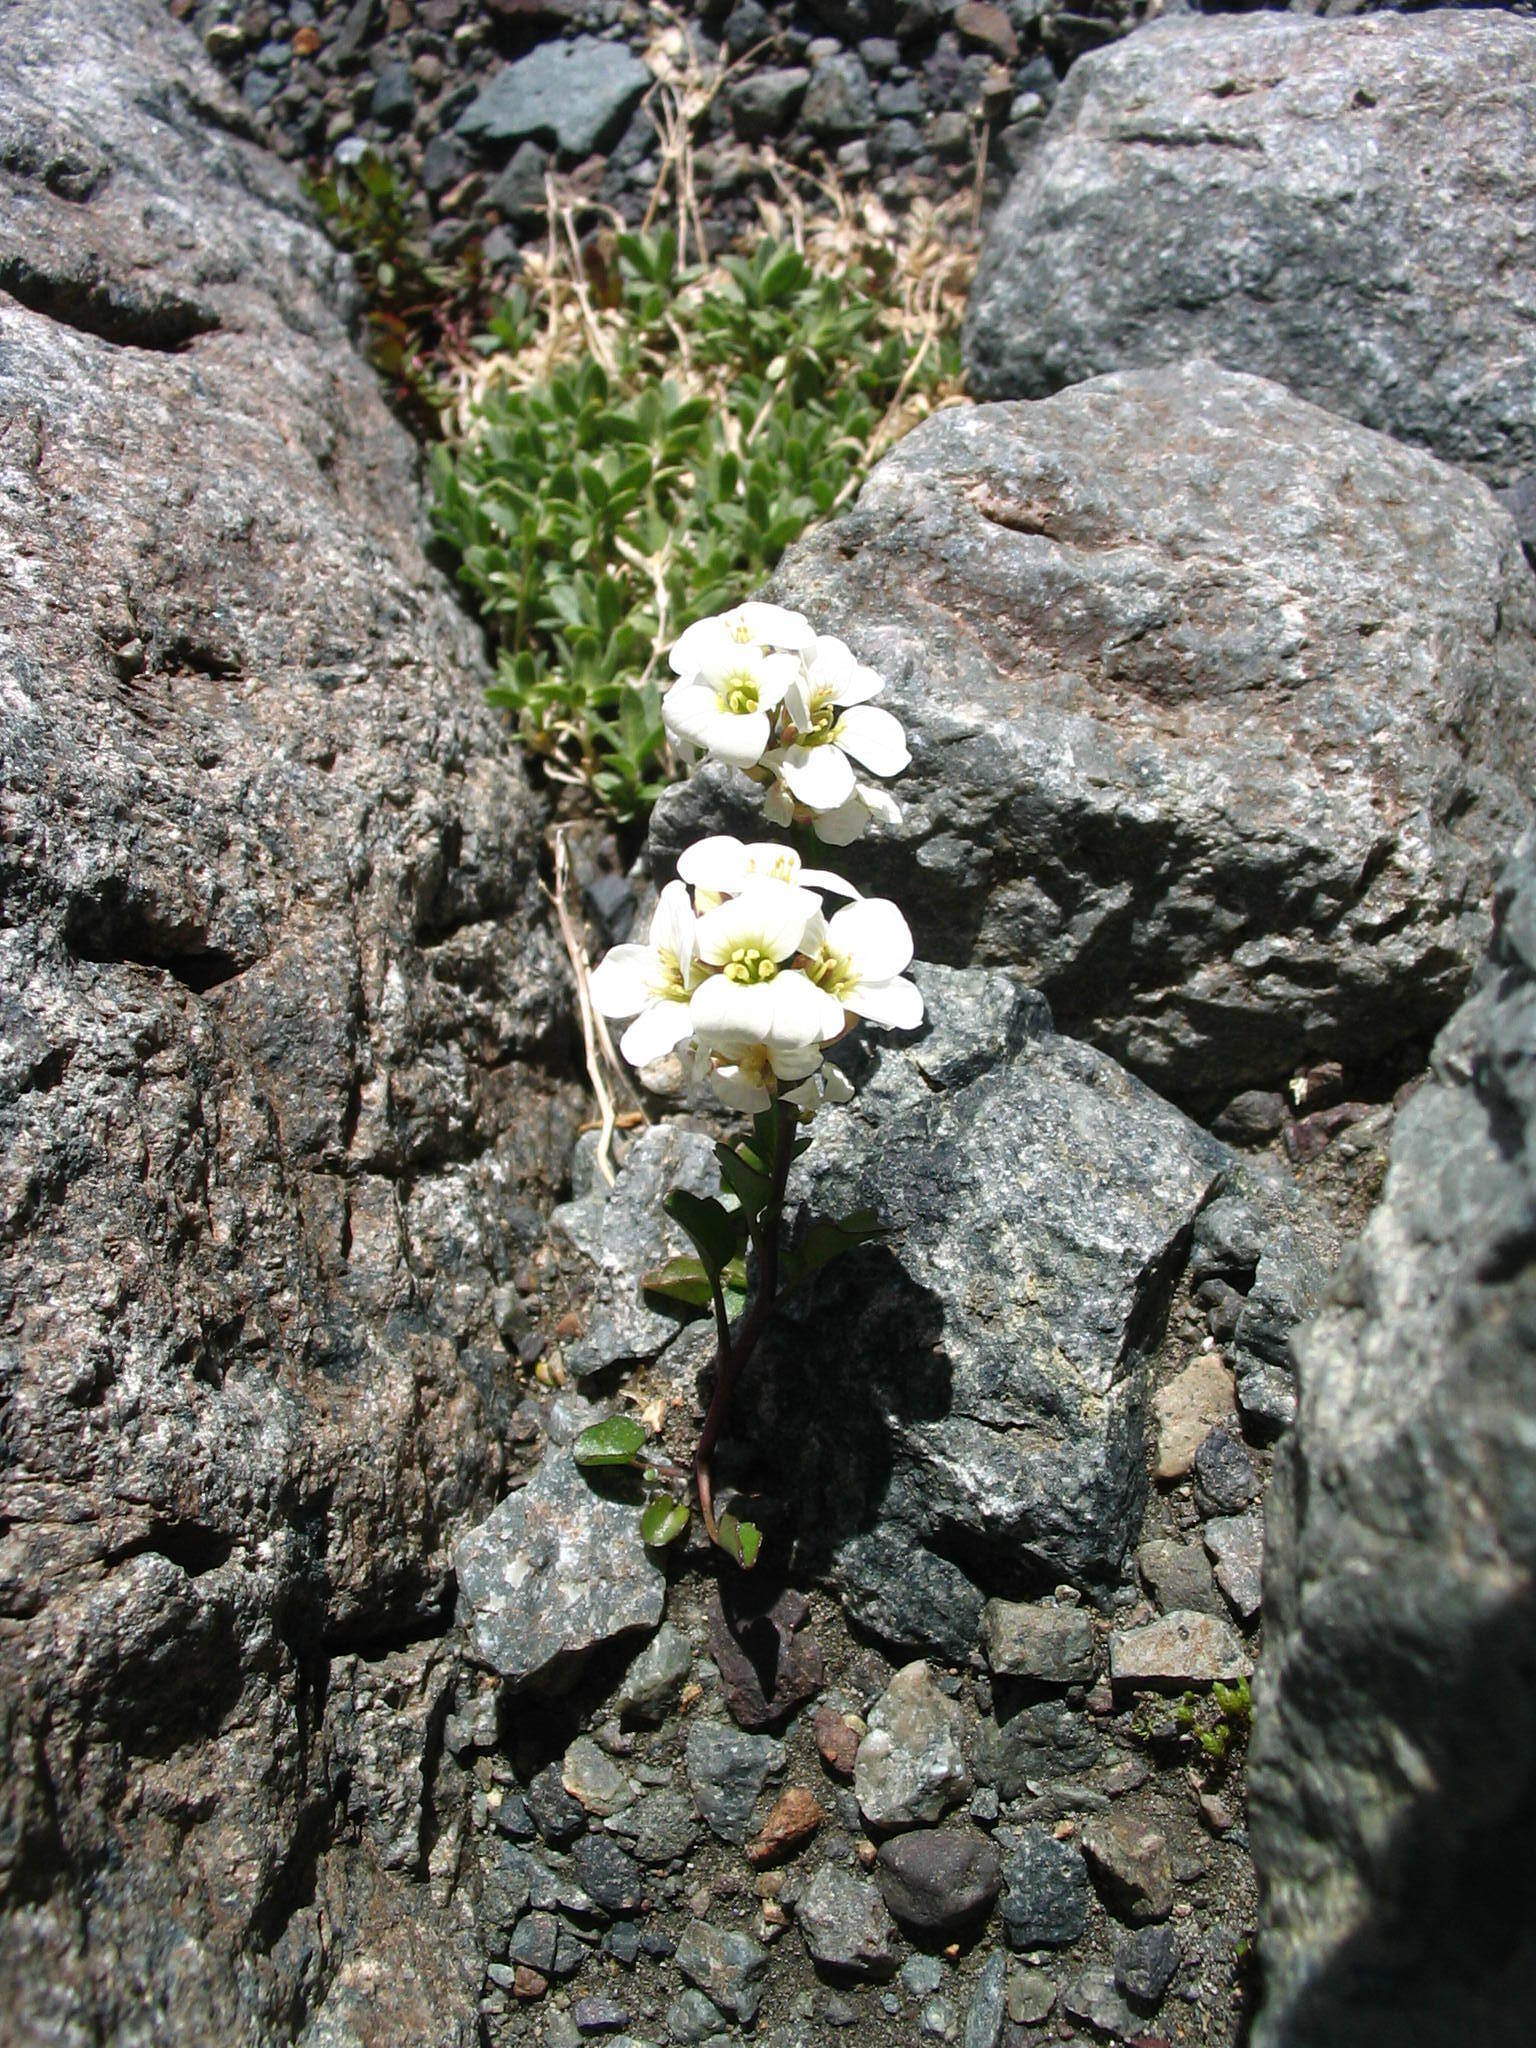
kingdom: Plantae
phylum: Tracheophyta
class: Magnoliopsida
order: Brassicales
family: Brassicaceae
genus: Cardamine
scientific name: Cardamine cordata
